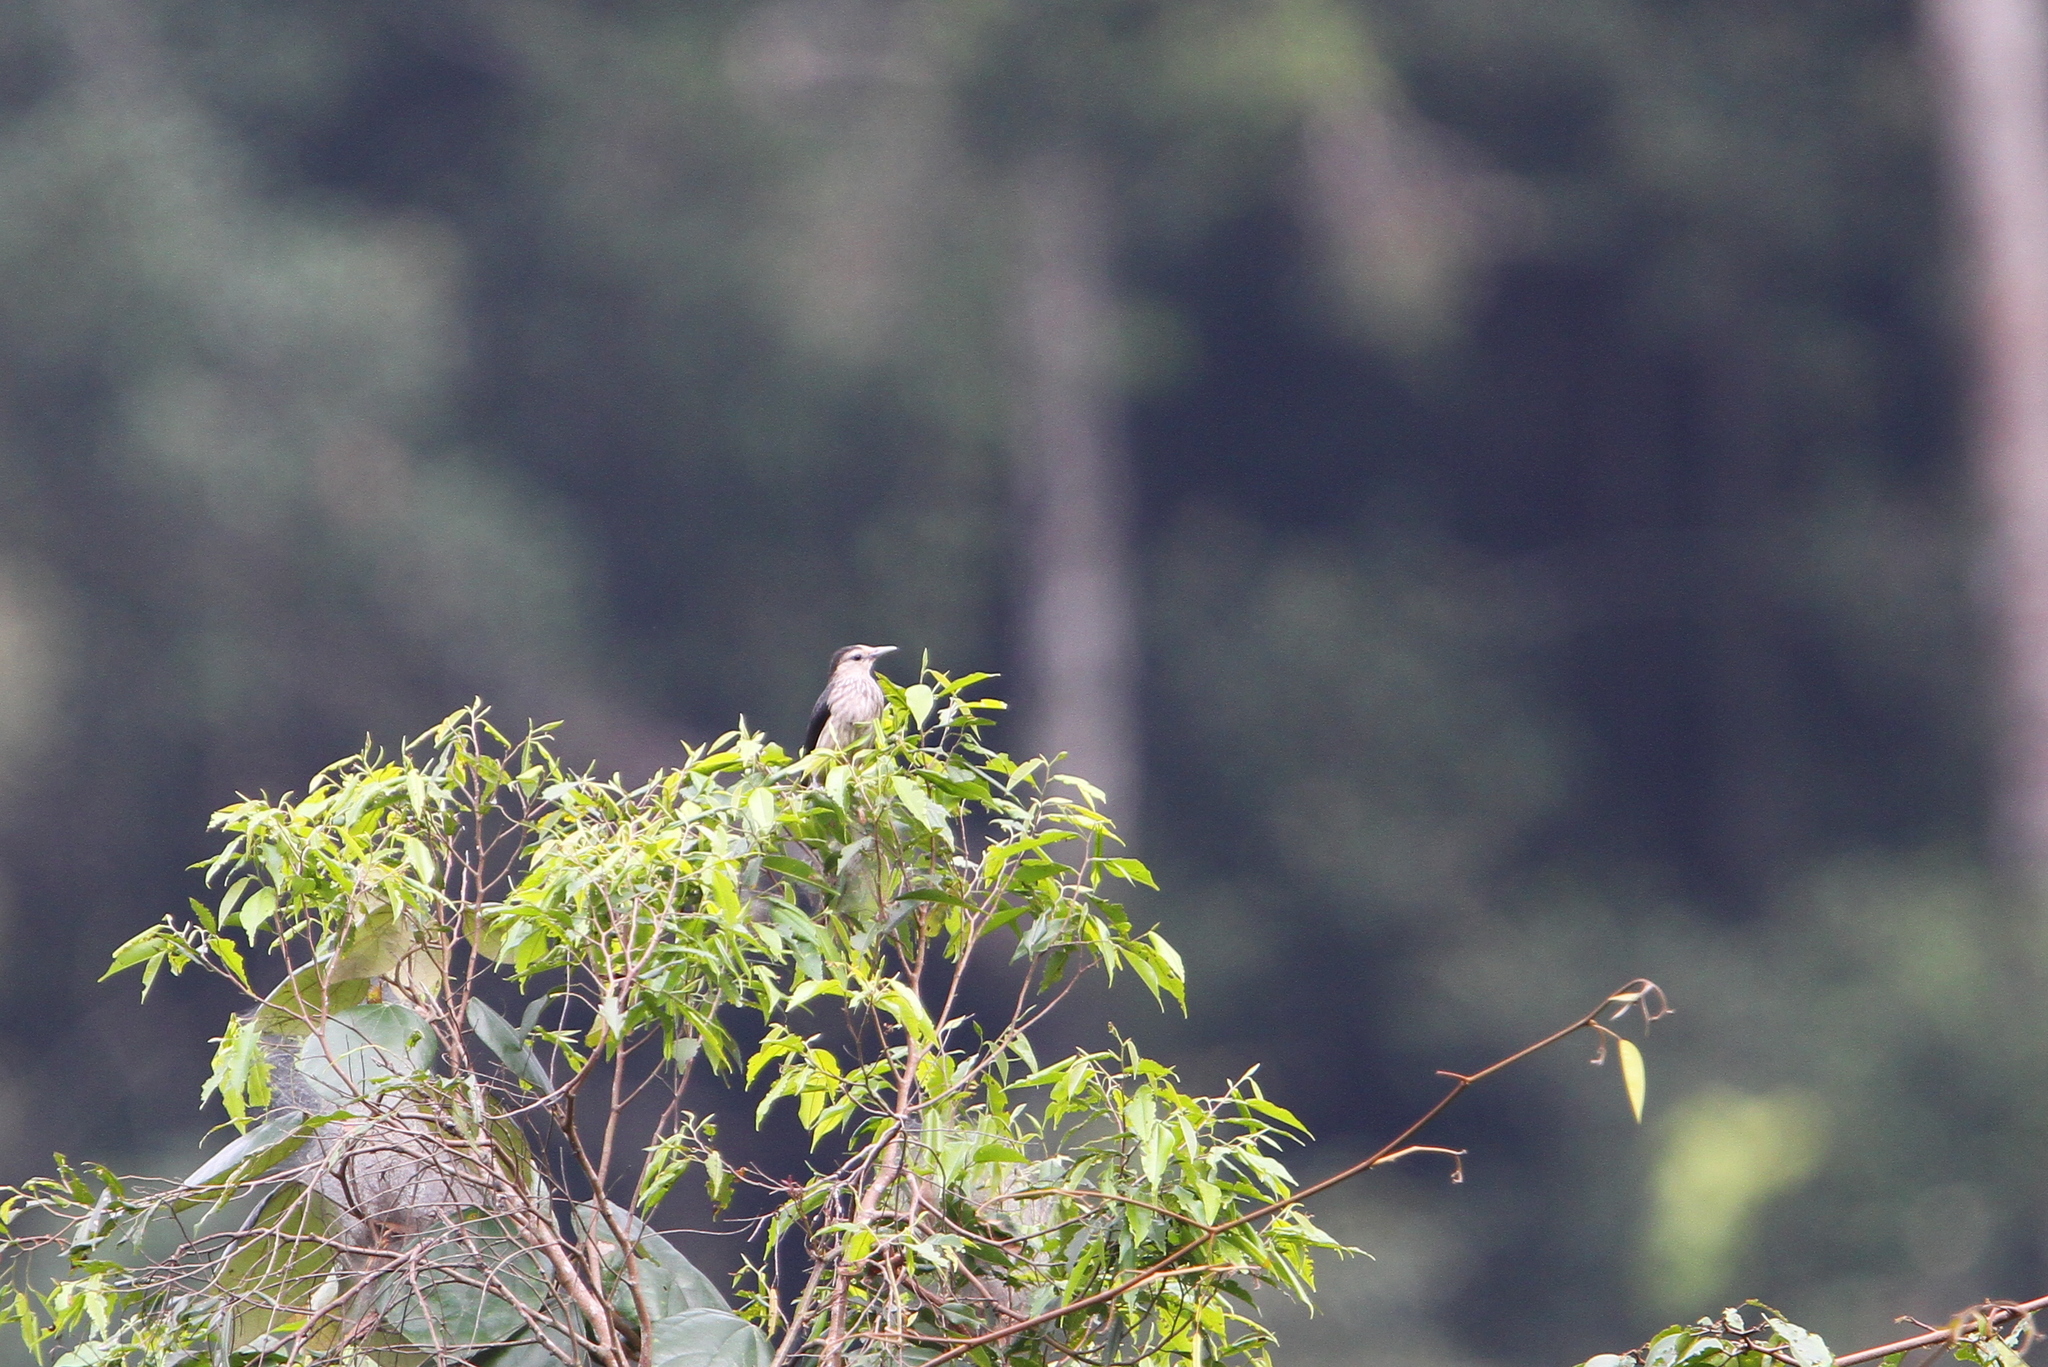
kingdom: Animalia
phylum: Chordata
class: Aves
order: Passeriformes
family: Sturnidae
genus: Sturnornis
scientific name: Sturnornis albofrontatus
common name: White-faced starling
